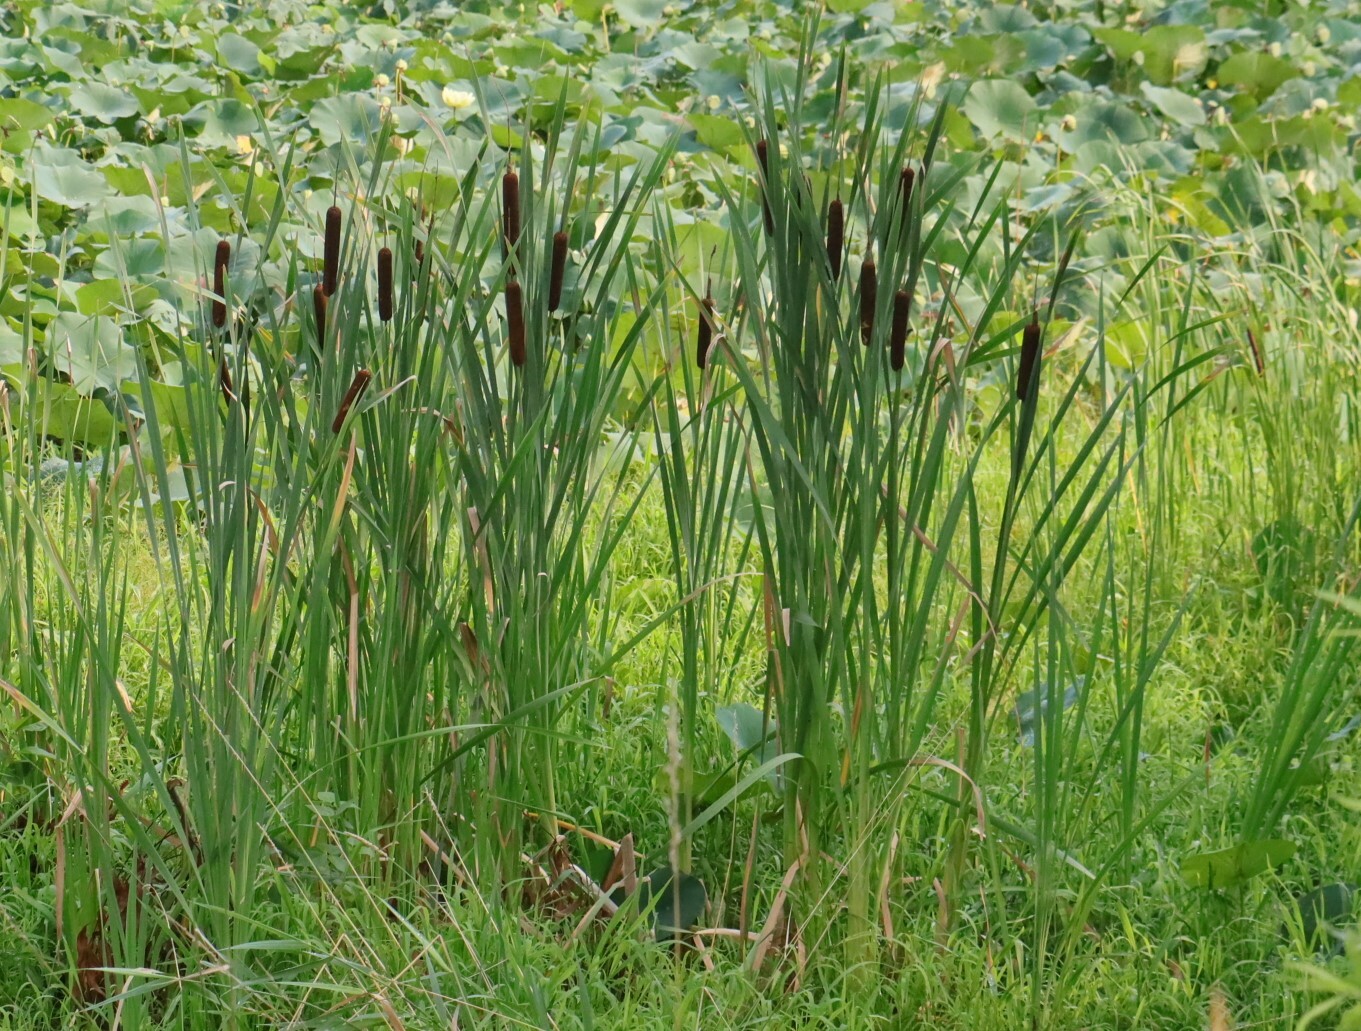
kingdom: Plantae
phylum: Tracheophyta
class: Liliopsida
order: Poales
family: Typhaceae
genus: Typha
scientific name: Typha latifolia
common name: Broadleaf cattail
